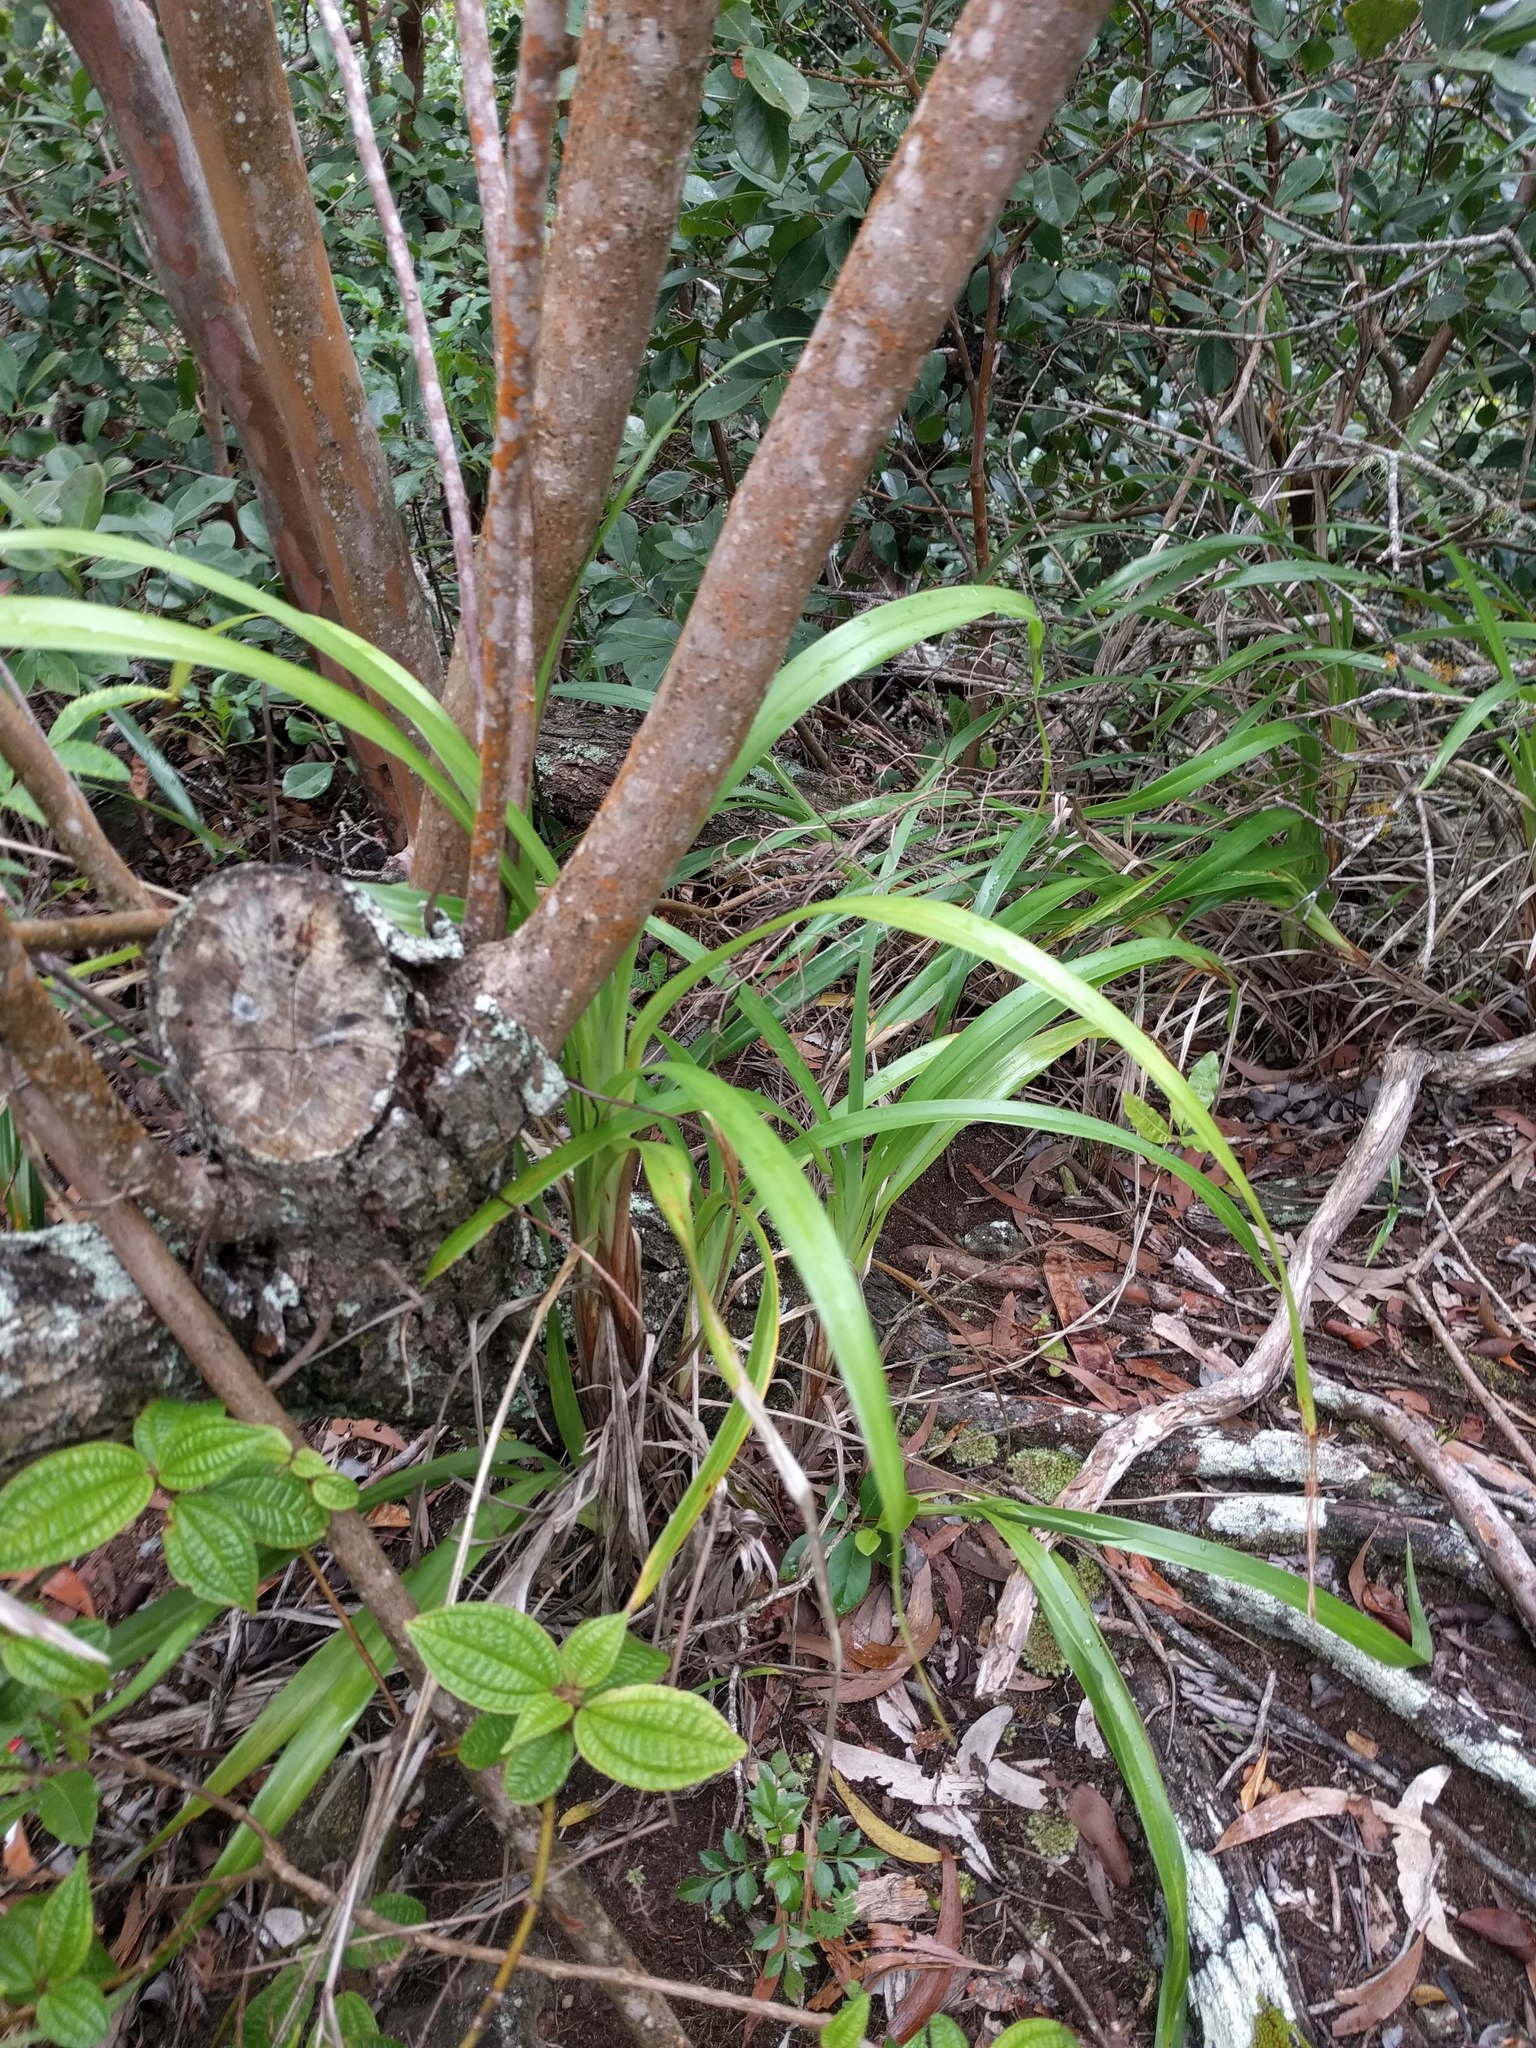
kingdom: Plantae
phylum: Tracheophyta
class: Liliopsida
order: Asparagales
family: Asphodelaceae
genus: Dianella
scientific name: Dianella sandwicensis
